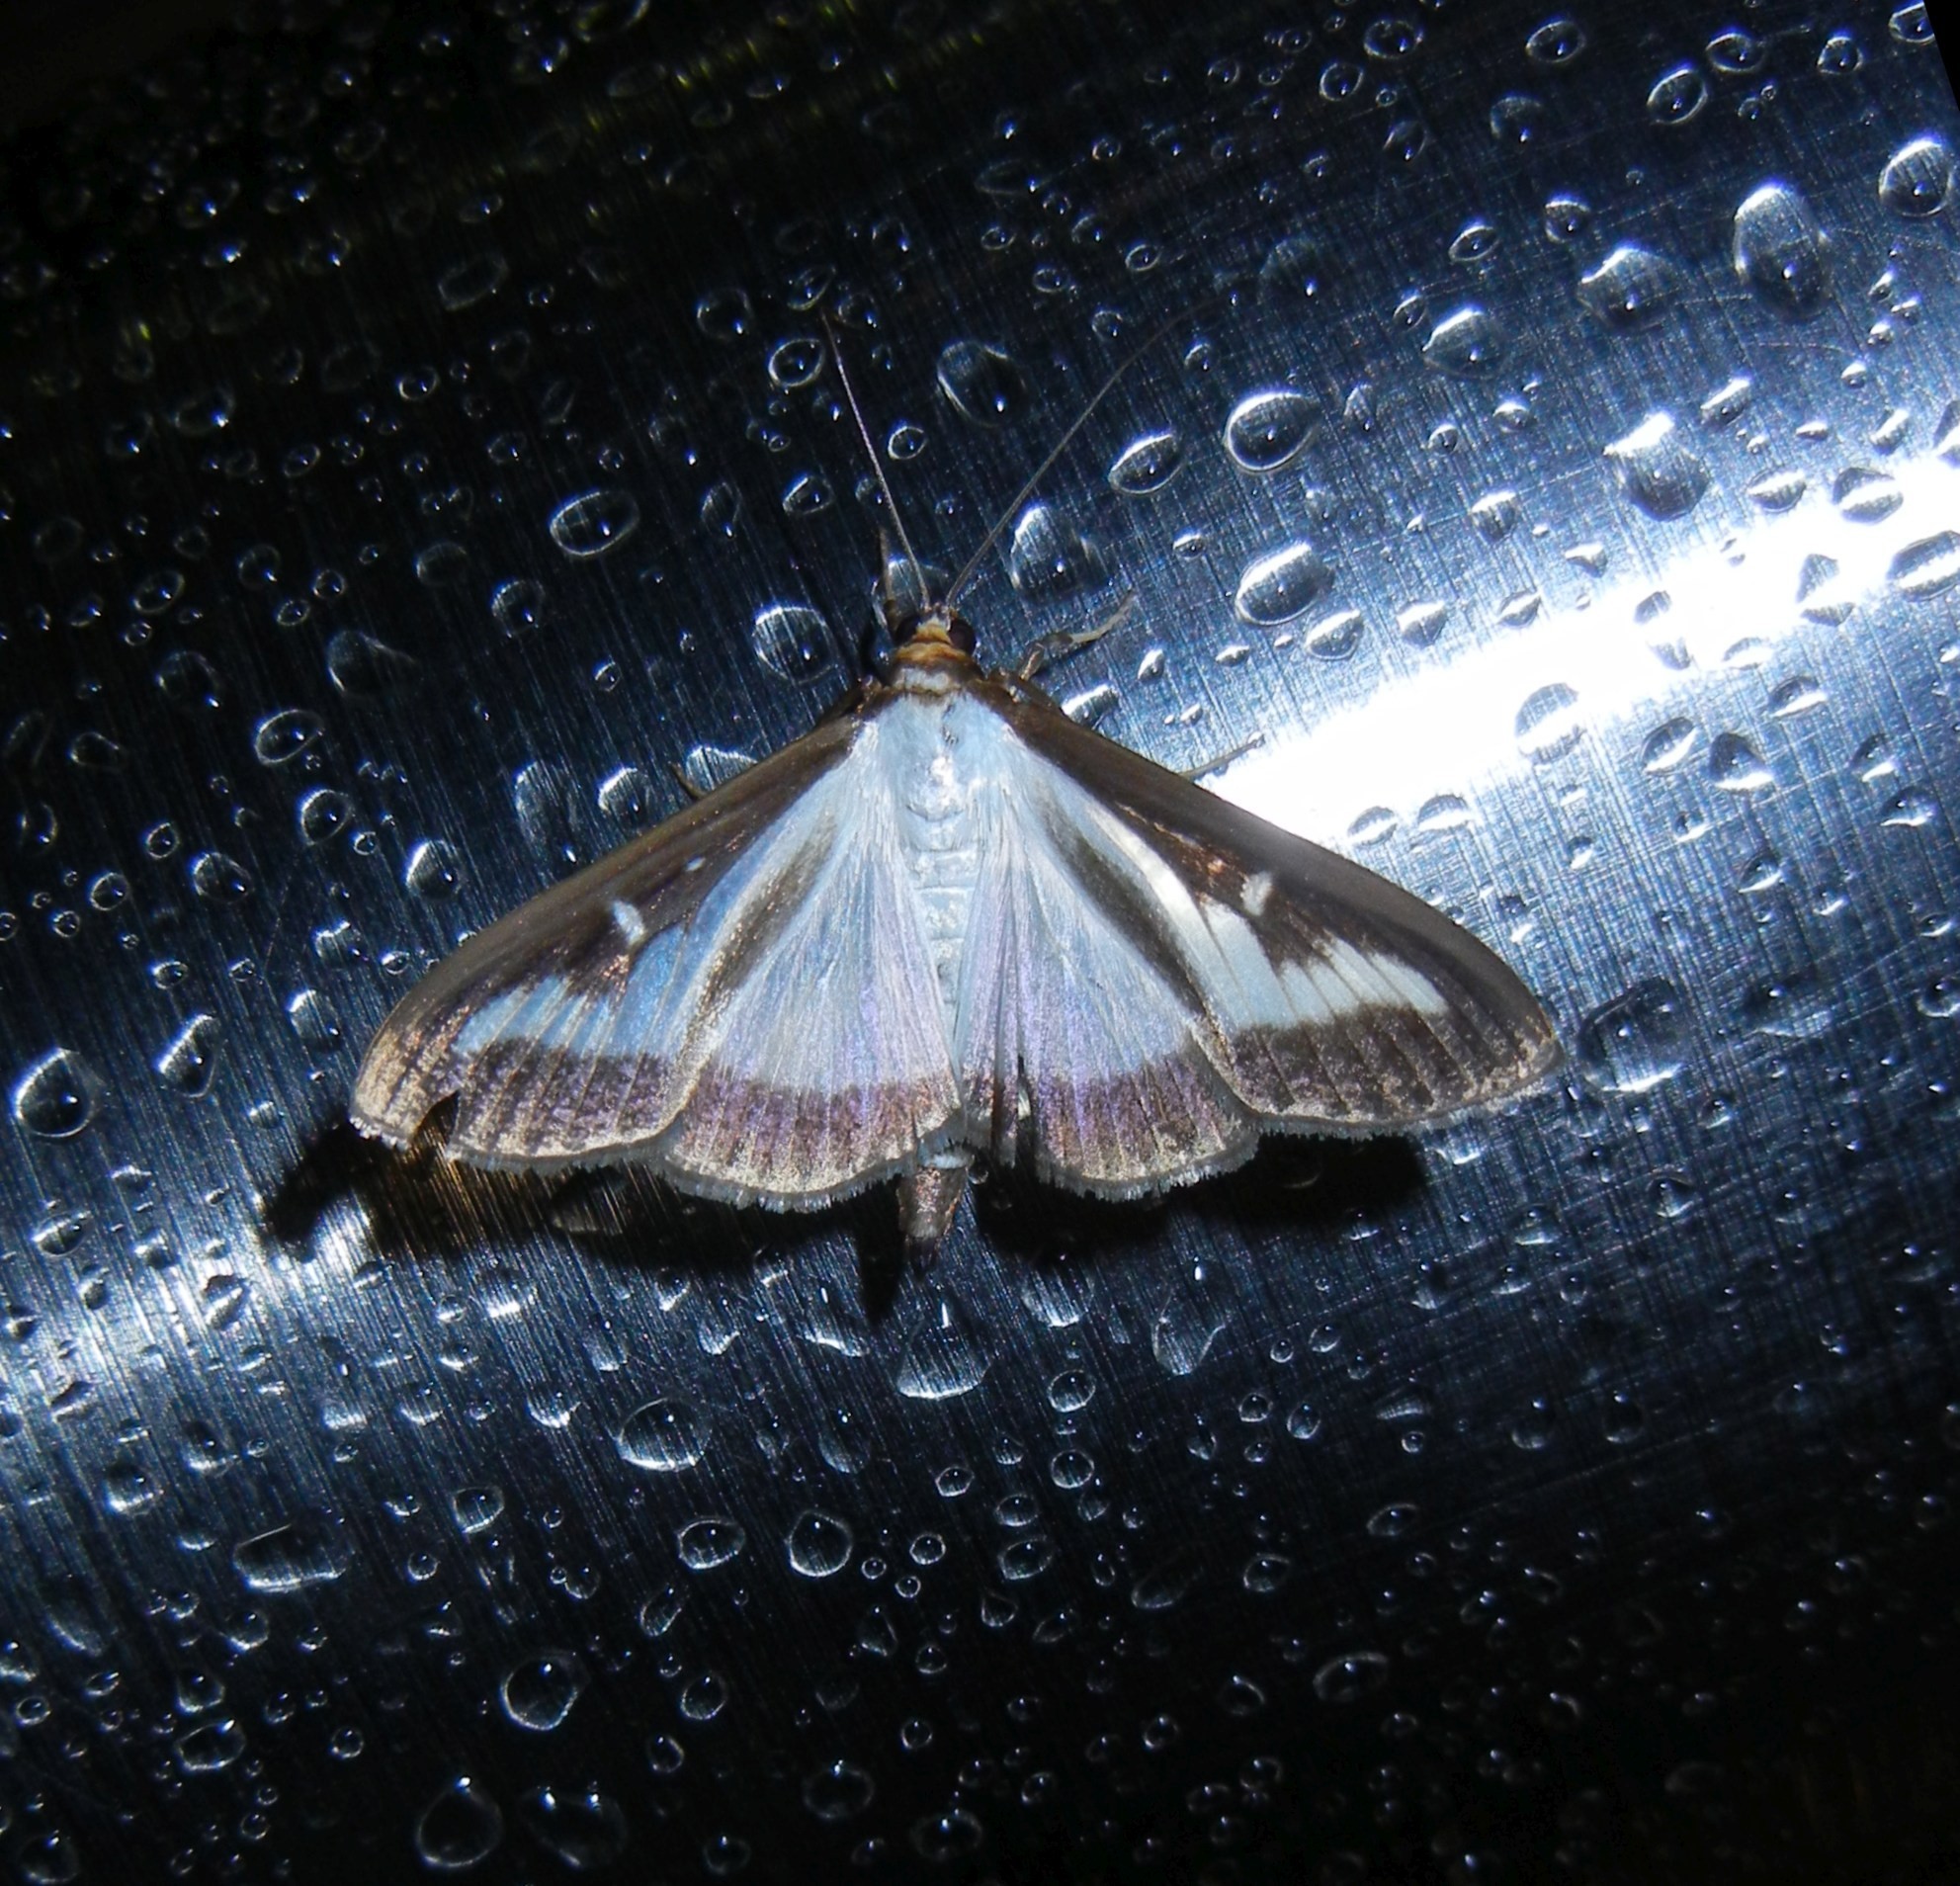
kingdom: Animalia
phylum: Arthropoda
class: Insecta
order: Lepidoptera
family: Crambidae
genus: Cydalima
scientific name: Cydalima perspectalis
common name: Box tree moth
